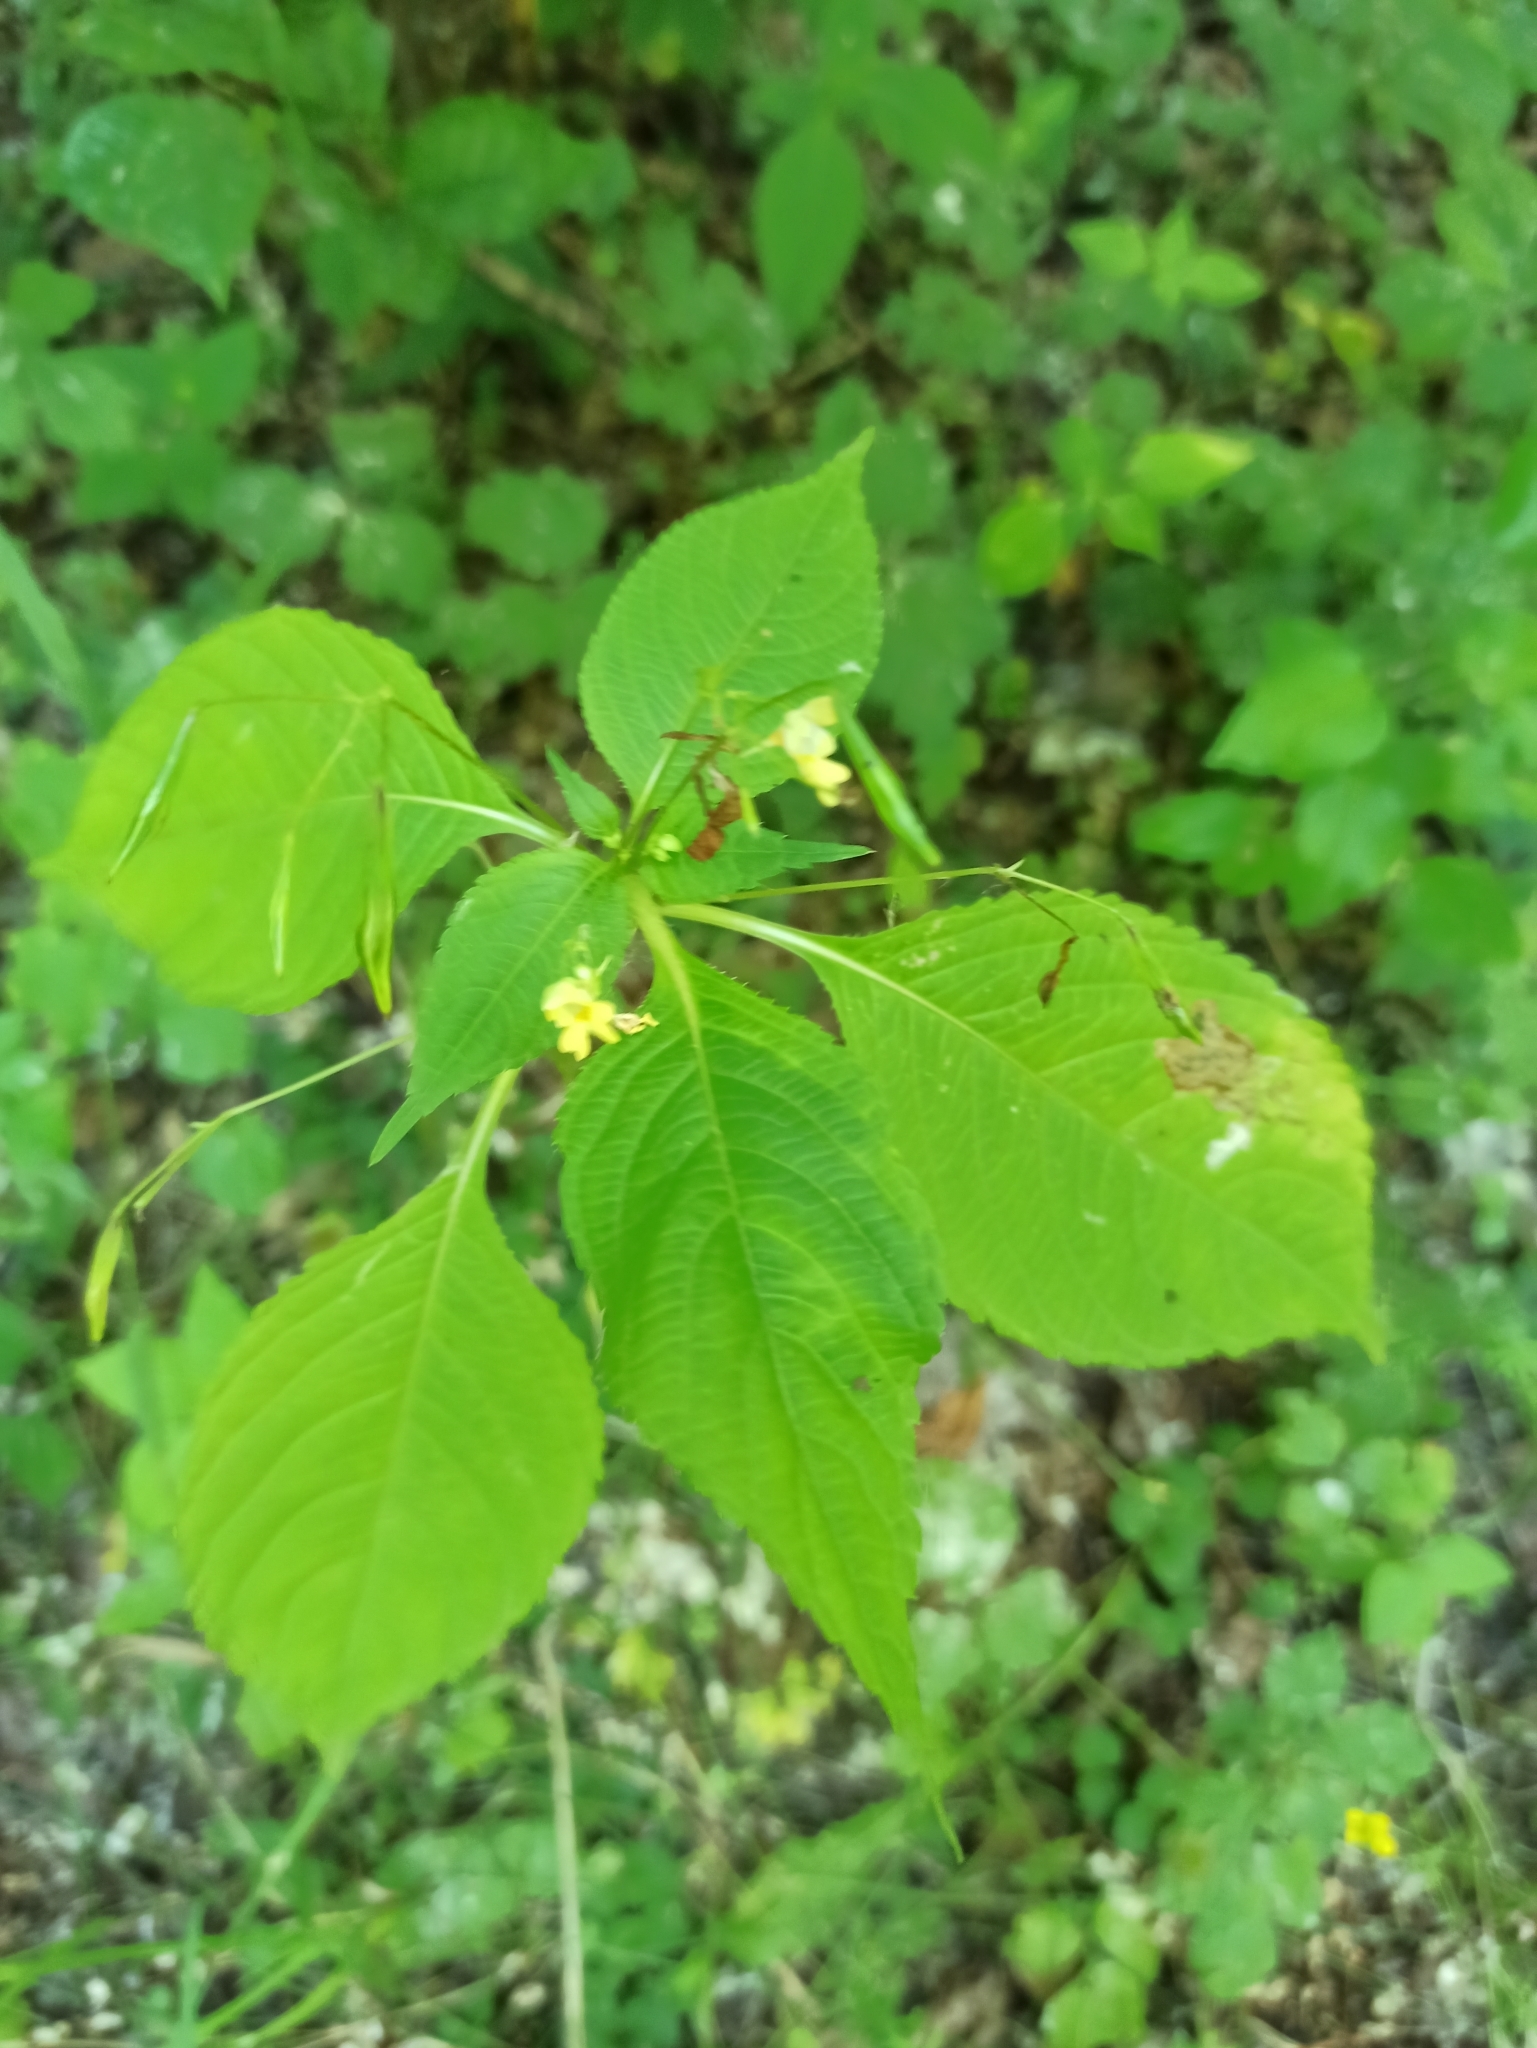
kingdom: Plantae
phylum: Tracheophyta
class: Magnoliopsida
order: Ericales
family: Balsaminaceae
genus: Impatiens
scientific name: Impatiens parviflora
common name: Small balsam
